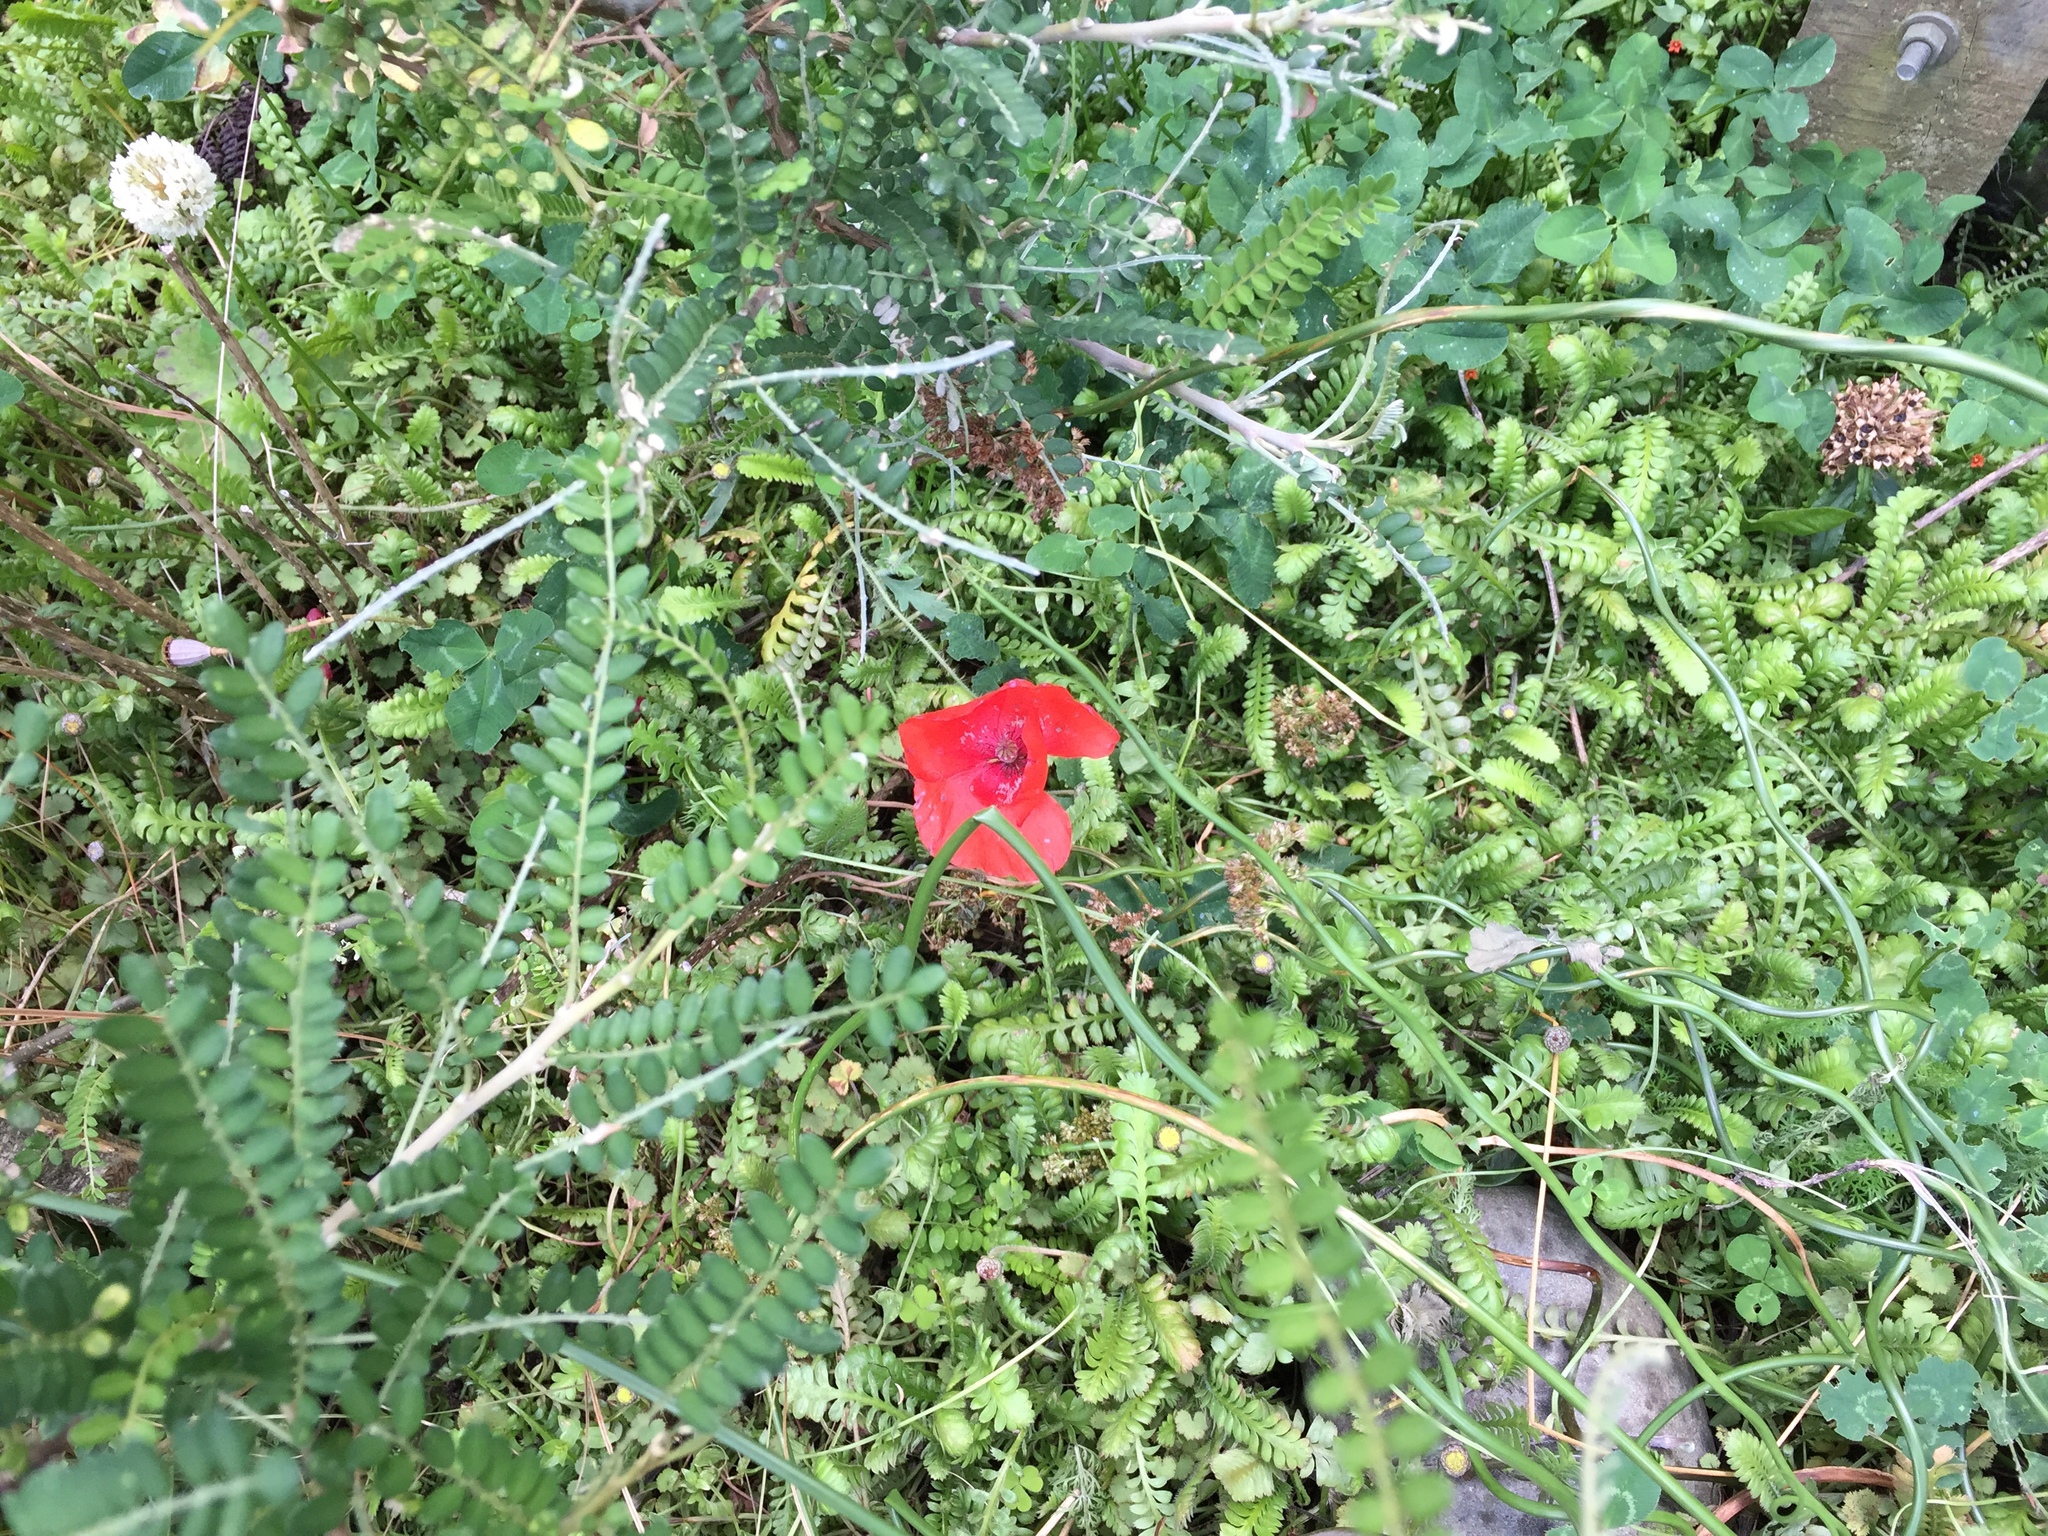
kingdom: Plantae
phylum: Tracheophyta
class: Magnoliopsida
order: Ranunculales
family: Papaveraceae
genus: Papaver
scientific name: Papaver rhoeas
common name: Corn poppy
